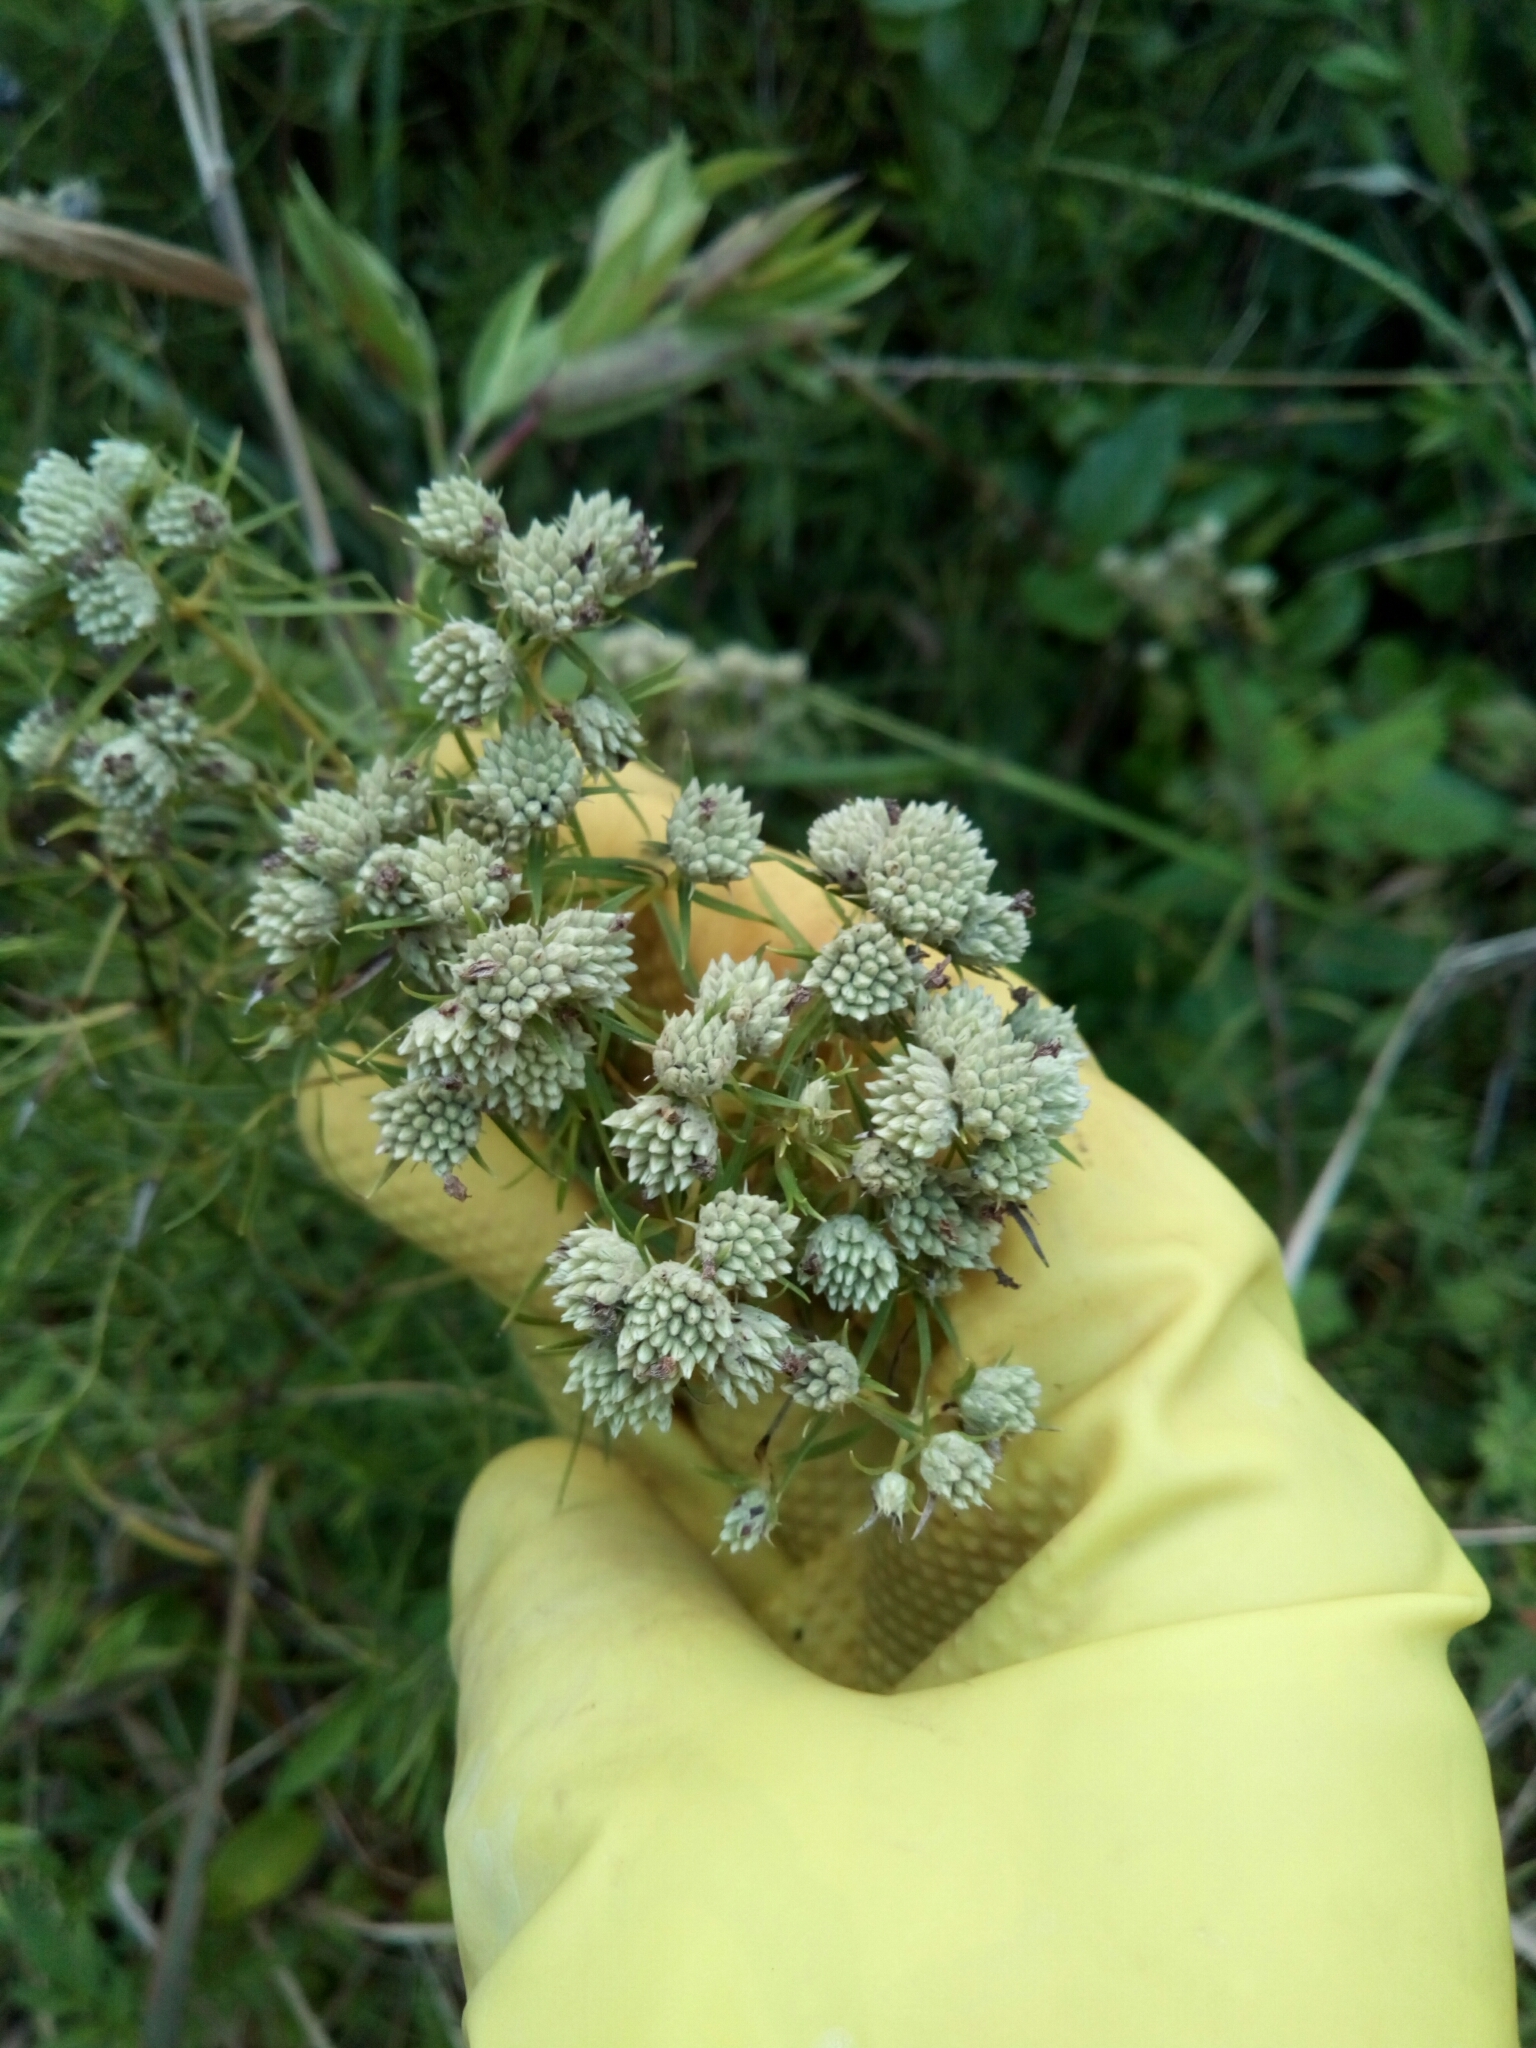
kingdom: Plantae
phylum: Tracheophyta
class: Magnoliopsida
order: Lamiales
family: Lamiaceae
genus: Pycnanthemum
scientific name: Pycnanthemum tenuifolium
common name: Narrow-leaf mountain-mint
